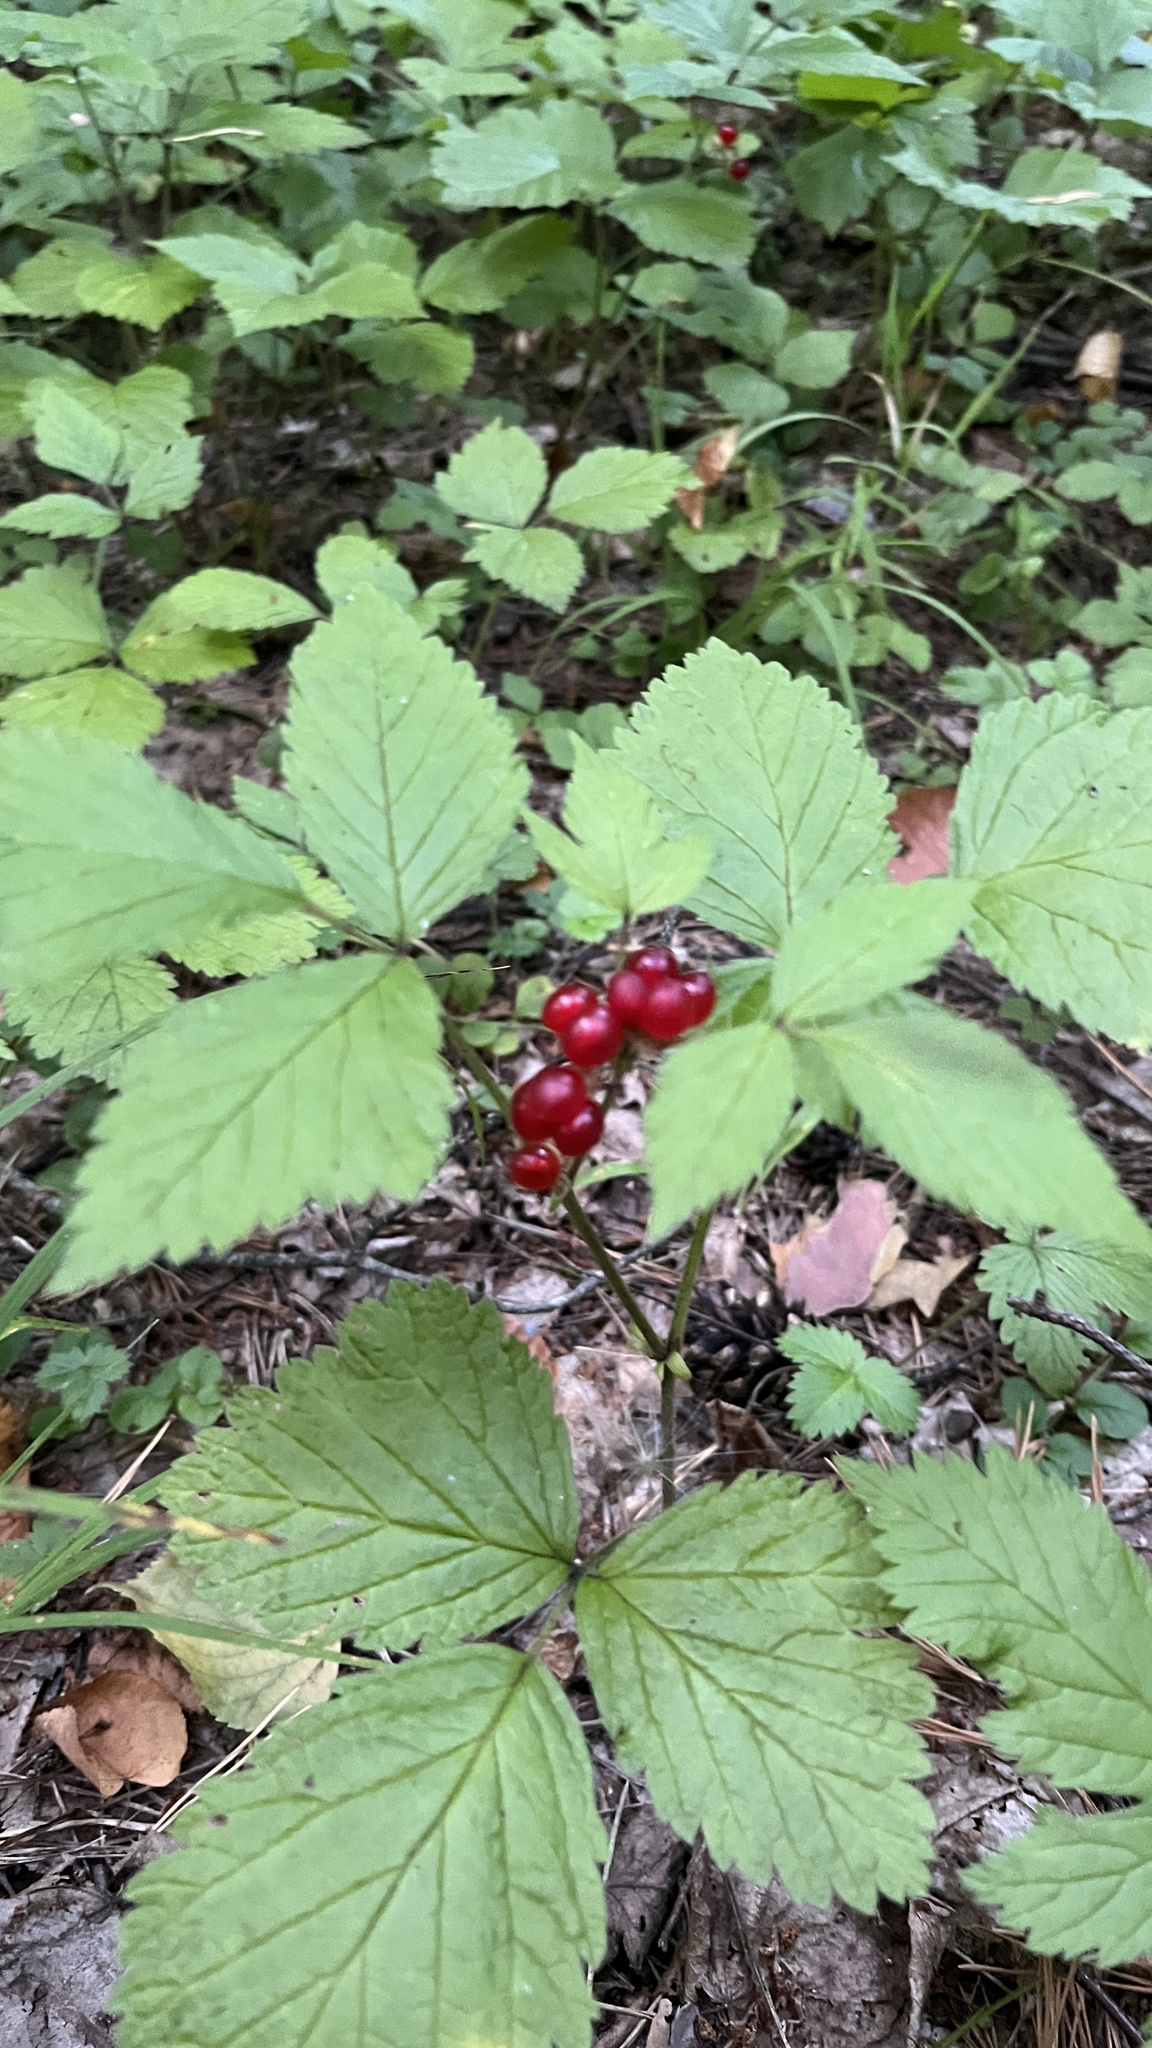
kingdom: Plantae
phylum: Tracheophyta
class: Magnoliopsida
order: Rosales
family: Rosaceae
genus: Rubus
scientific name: Rubus saxatilis
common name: Stone bramble
